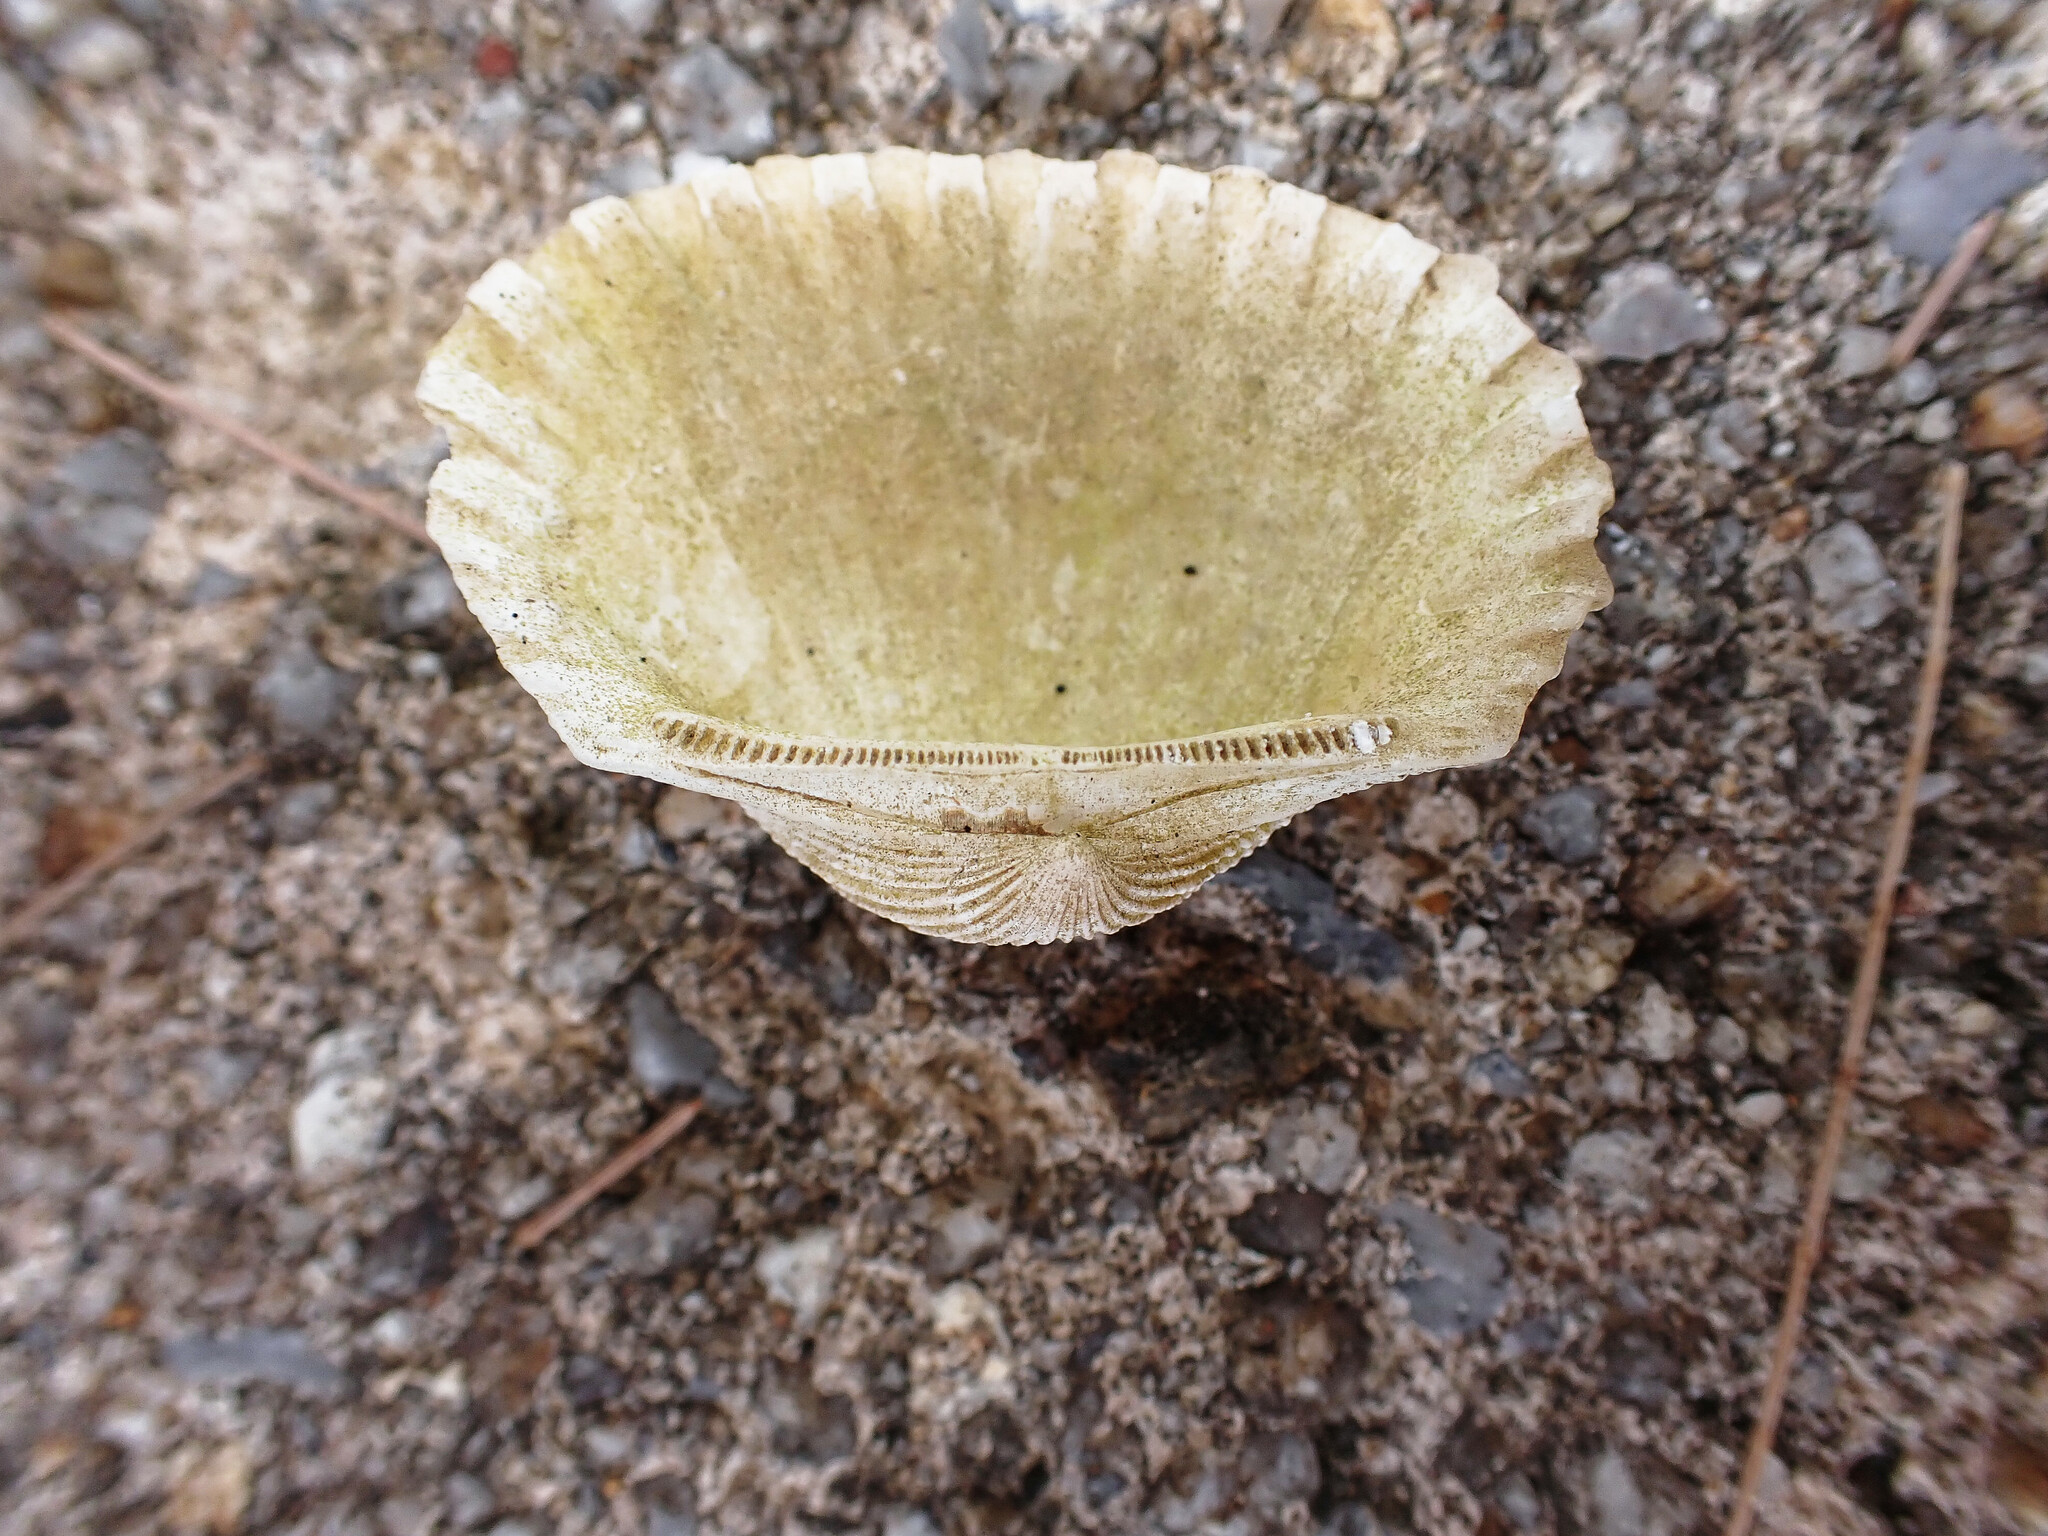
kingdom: Animalia
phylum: Mollusca
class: Bivalvia
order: Arcida
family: Arcidae
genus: Tegillarca
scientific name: Tegillarca granosa
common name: Blood clam
